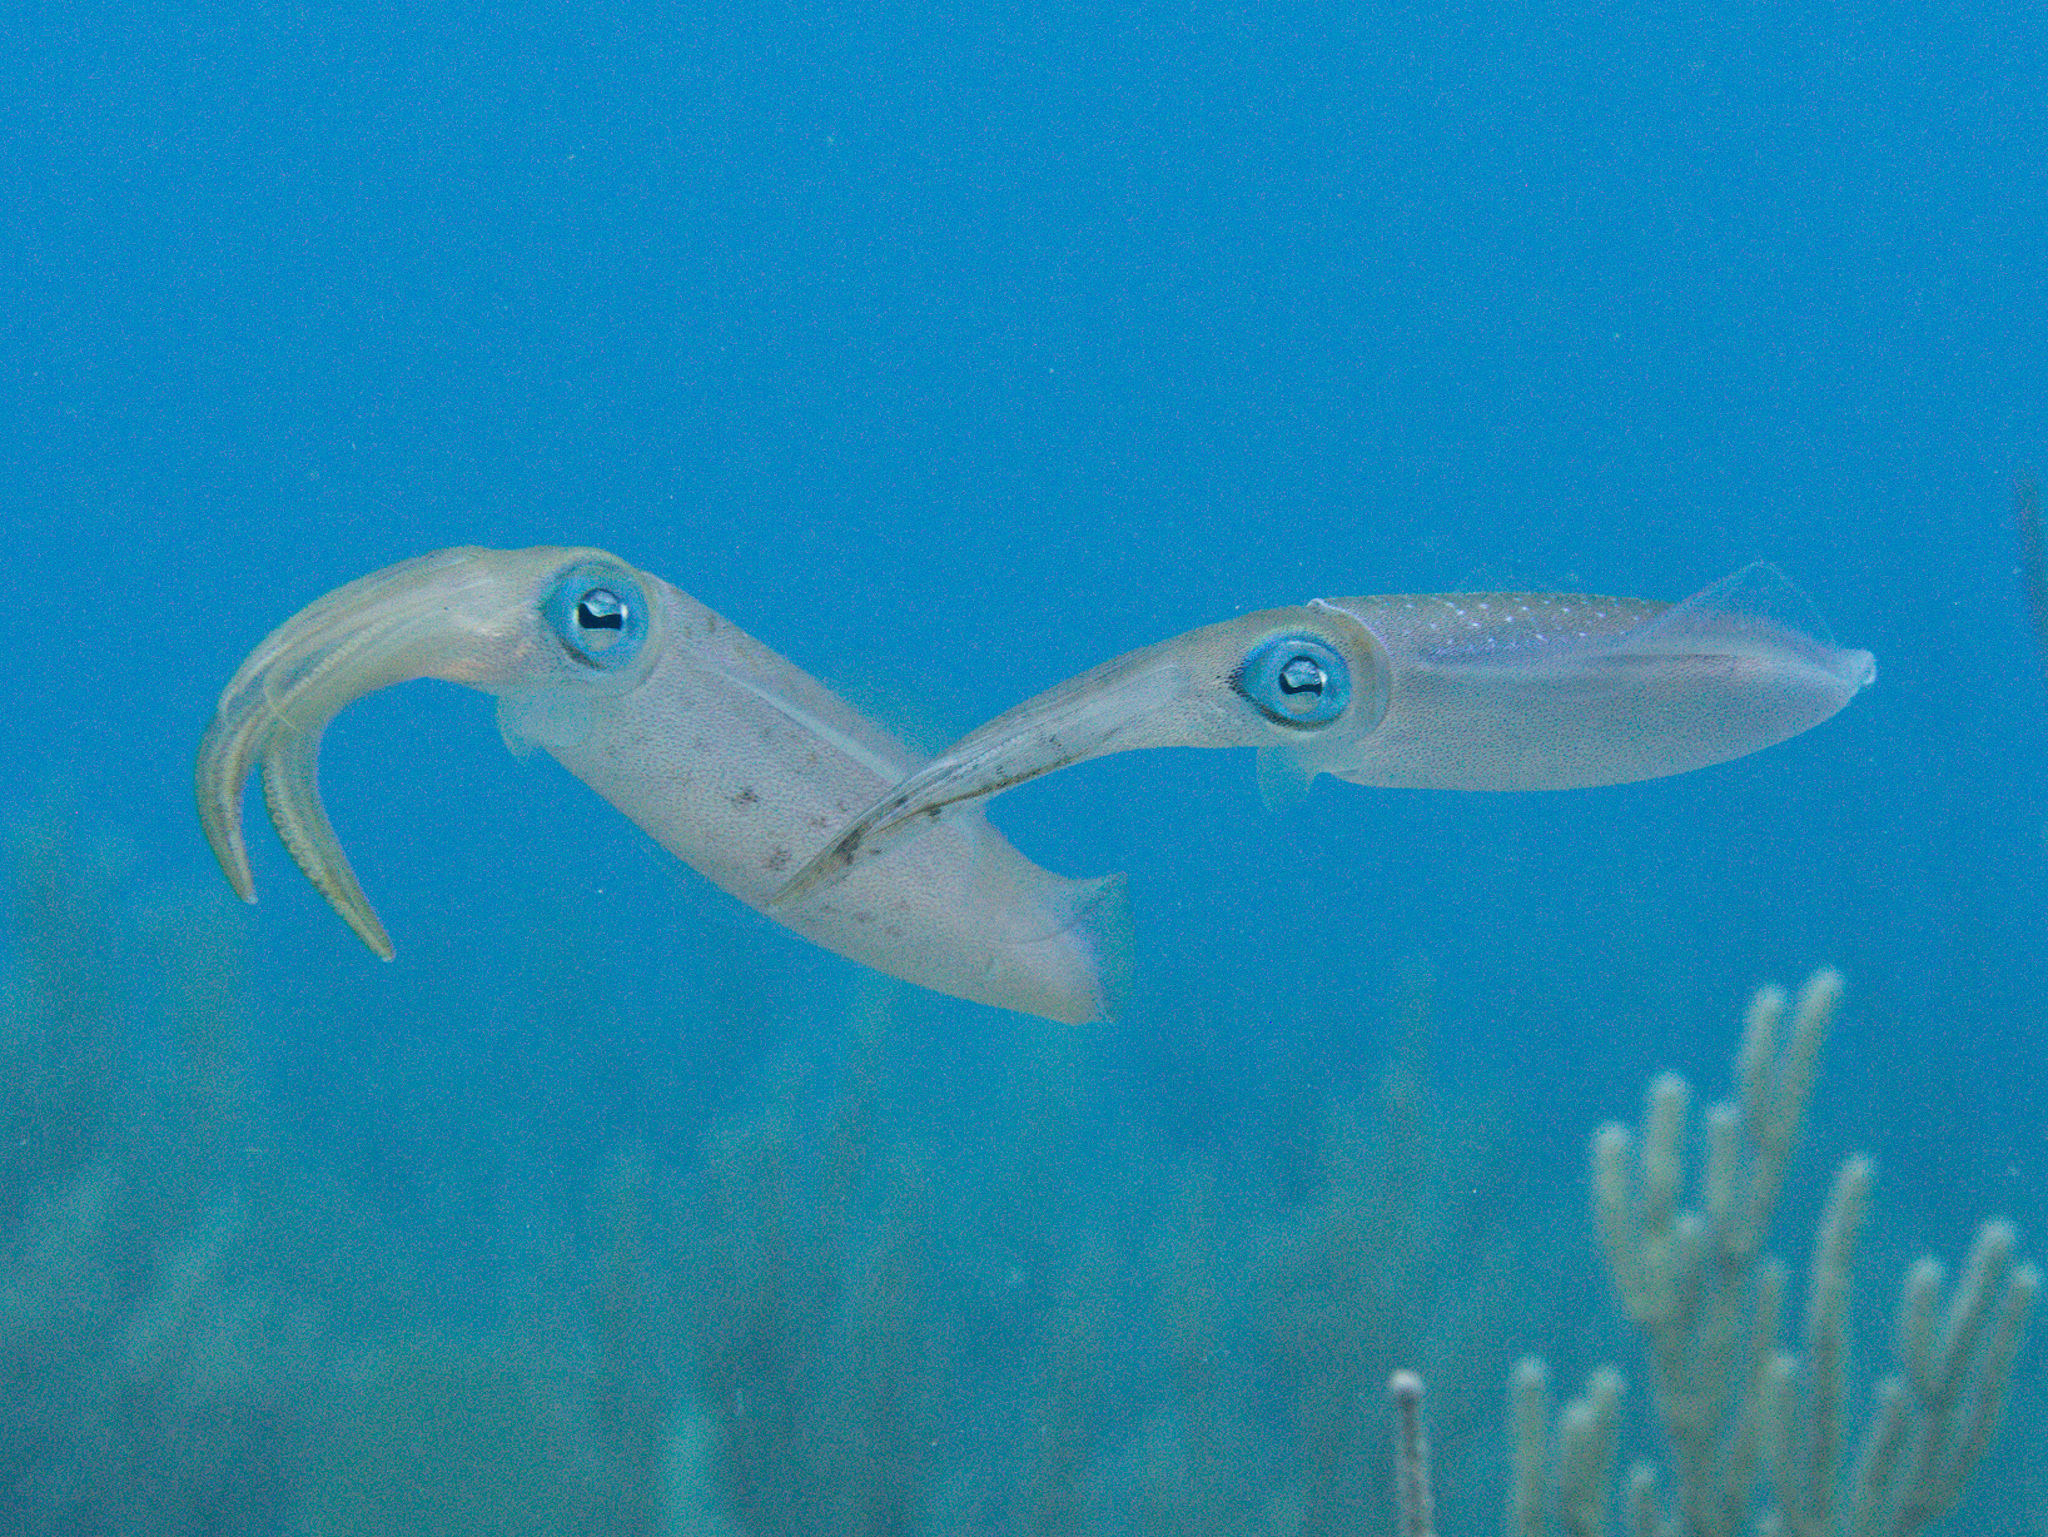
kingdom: Animalia
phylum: Mollusca
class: Cephalopoda
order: Myopsida
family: Loliginidae
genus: Sepioteuthis
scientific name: Sepioteuthis sepioidea
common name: Caribbean reef squid
